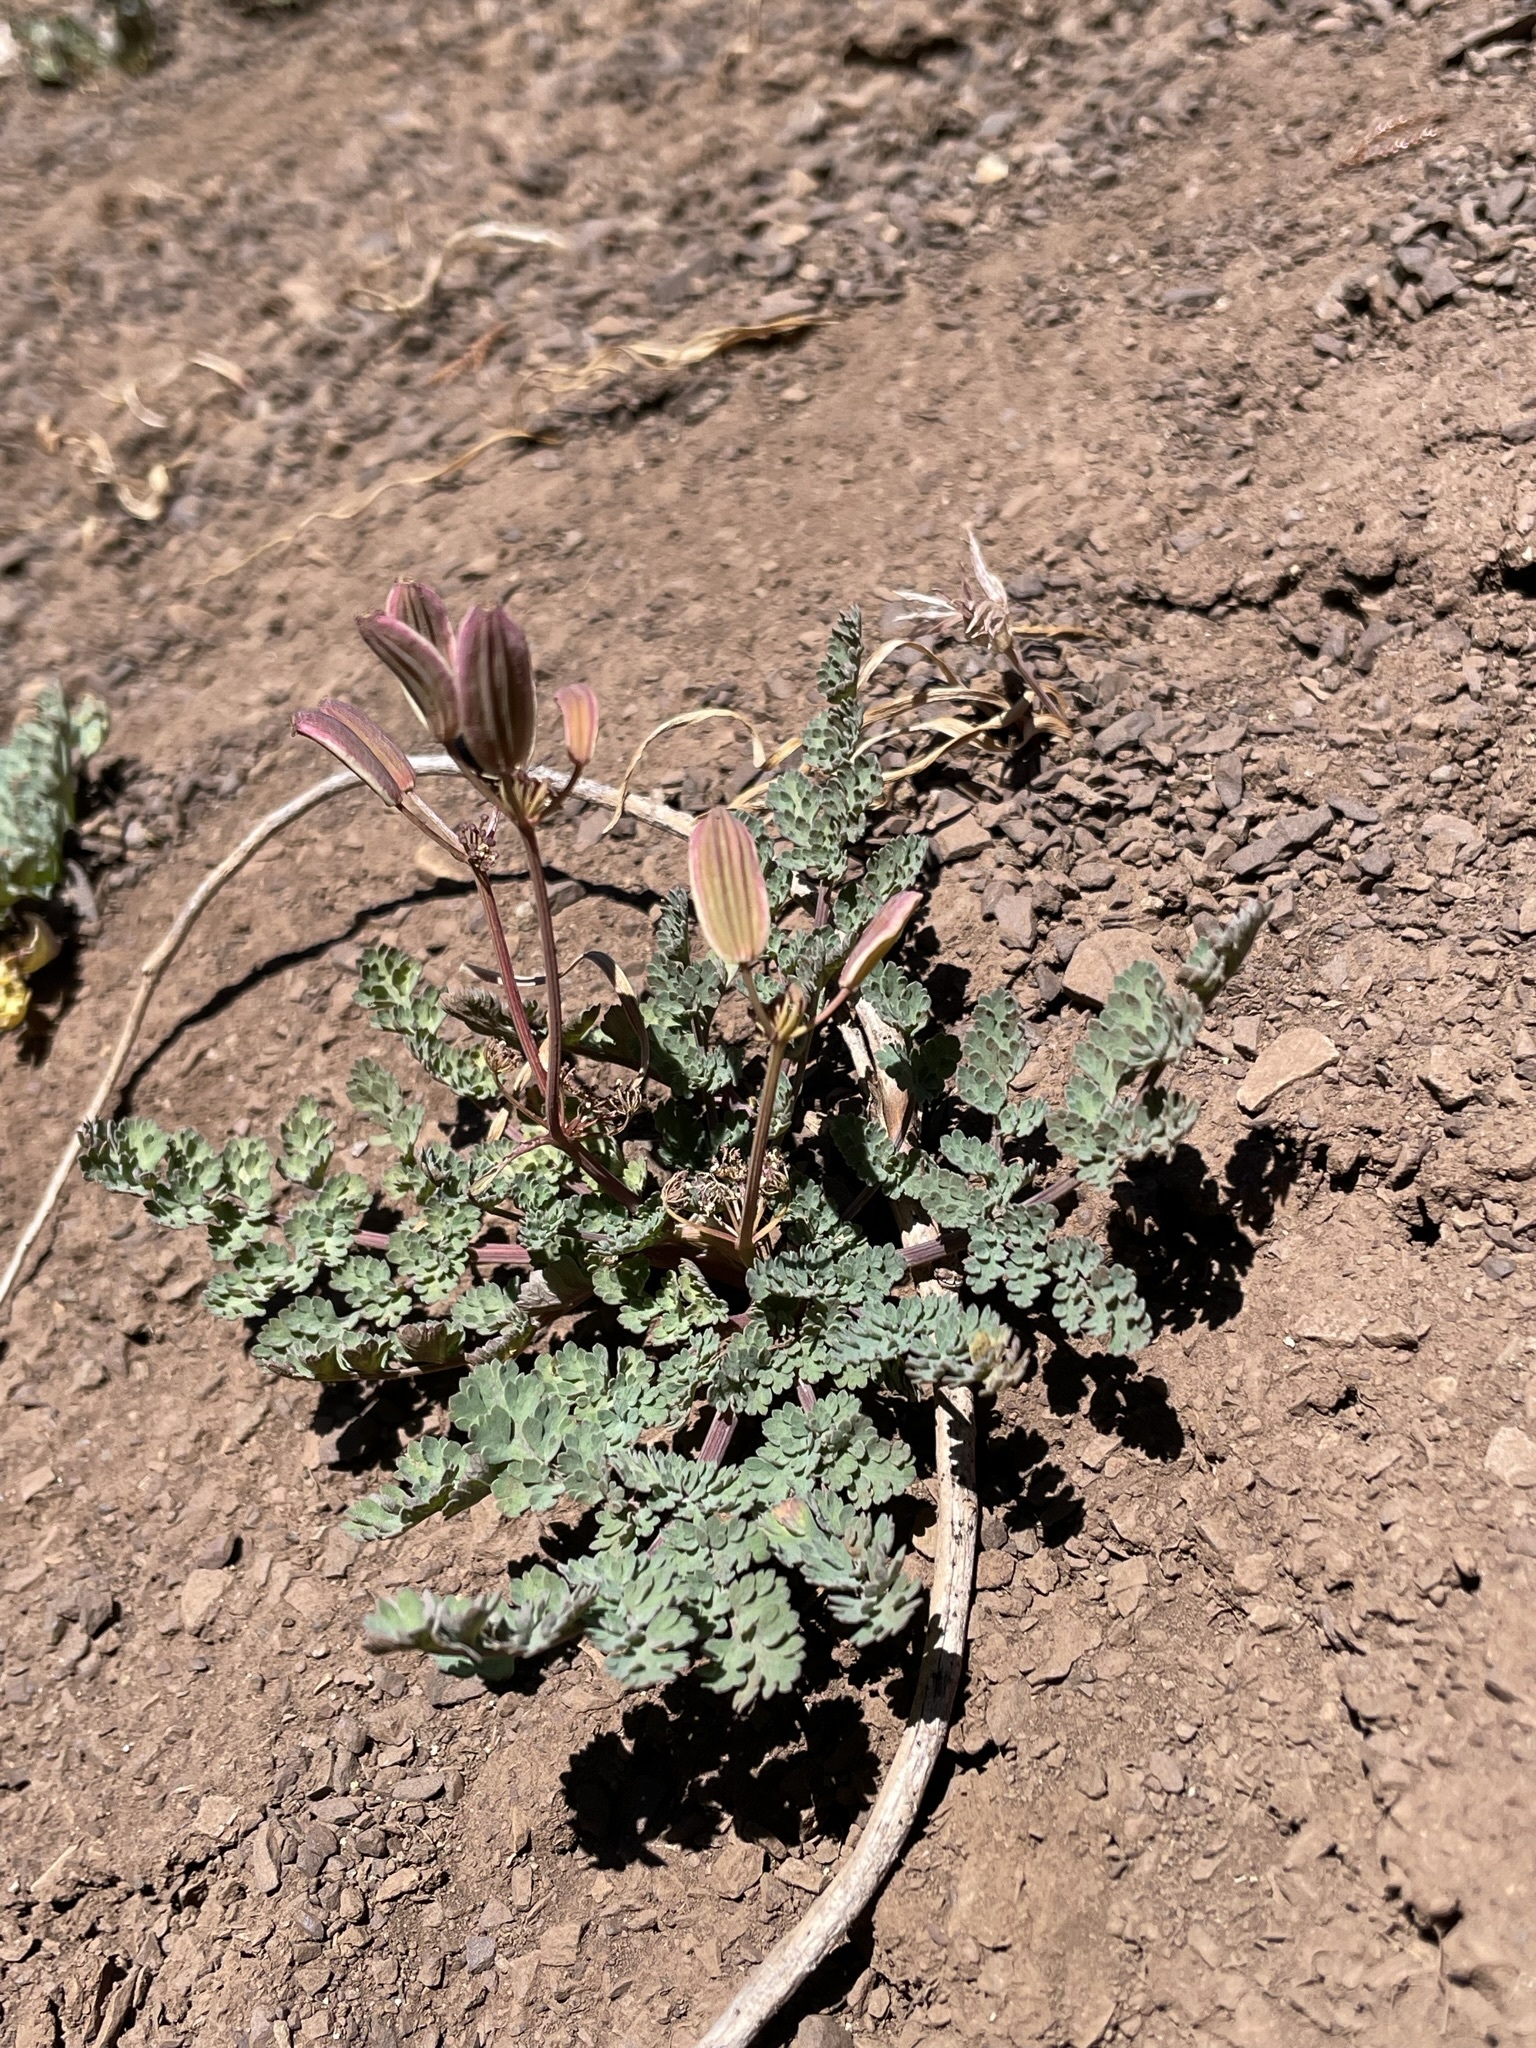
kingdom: Plantae
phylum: Tracheophyta
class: Magnoliopsida
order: Apiales
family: Apiaceae
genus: Lomatium
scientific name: Lomatium martindalei
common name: Cascade desert-parsley
